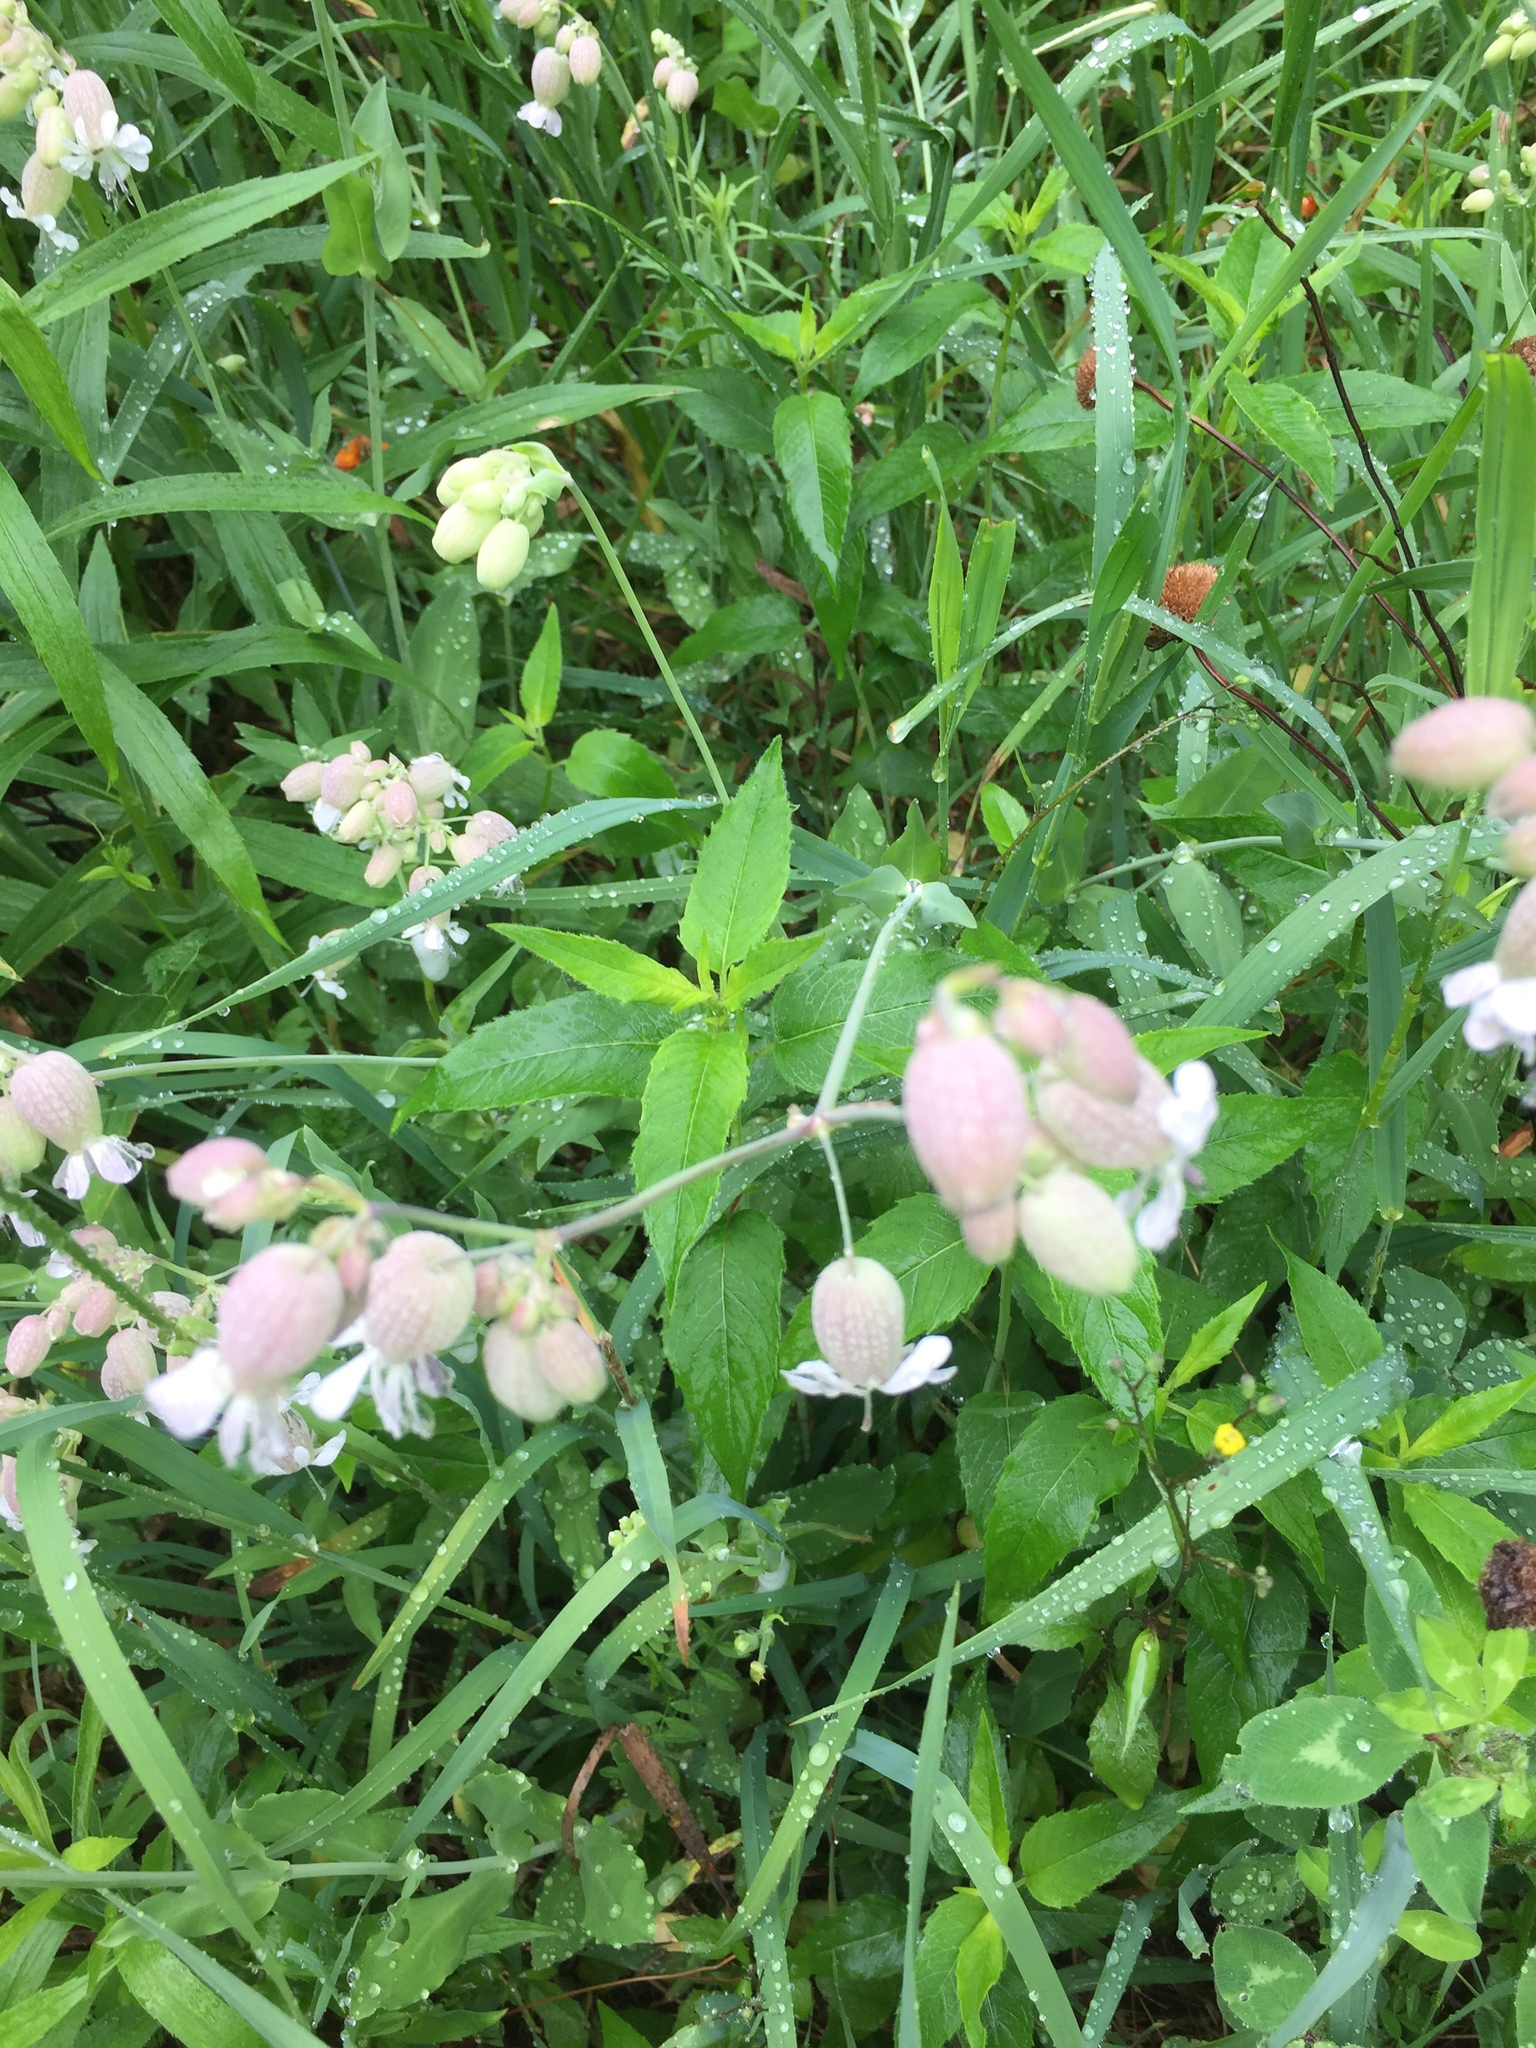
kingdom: Plantae
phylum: Tracheophyta
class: Magnoliopsida
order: Caryophyllales
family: Caryophyllaceae
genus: Silene
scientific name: Silene vulgaris
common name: Bladder campion
